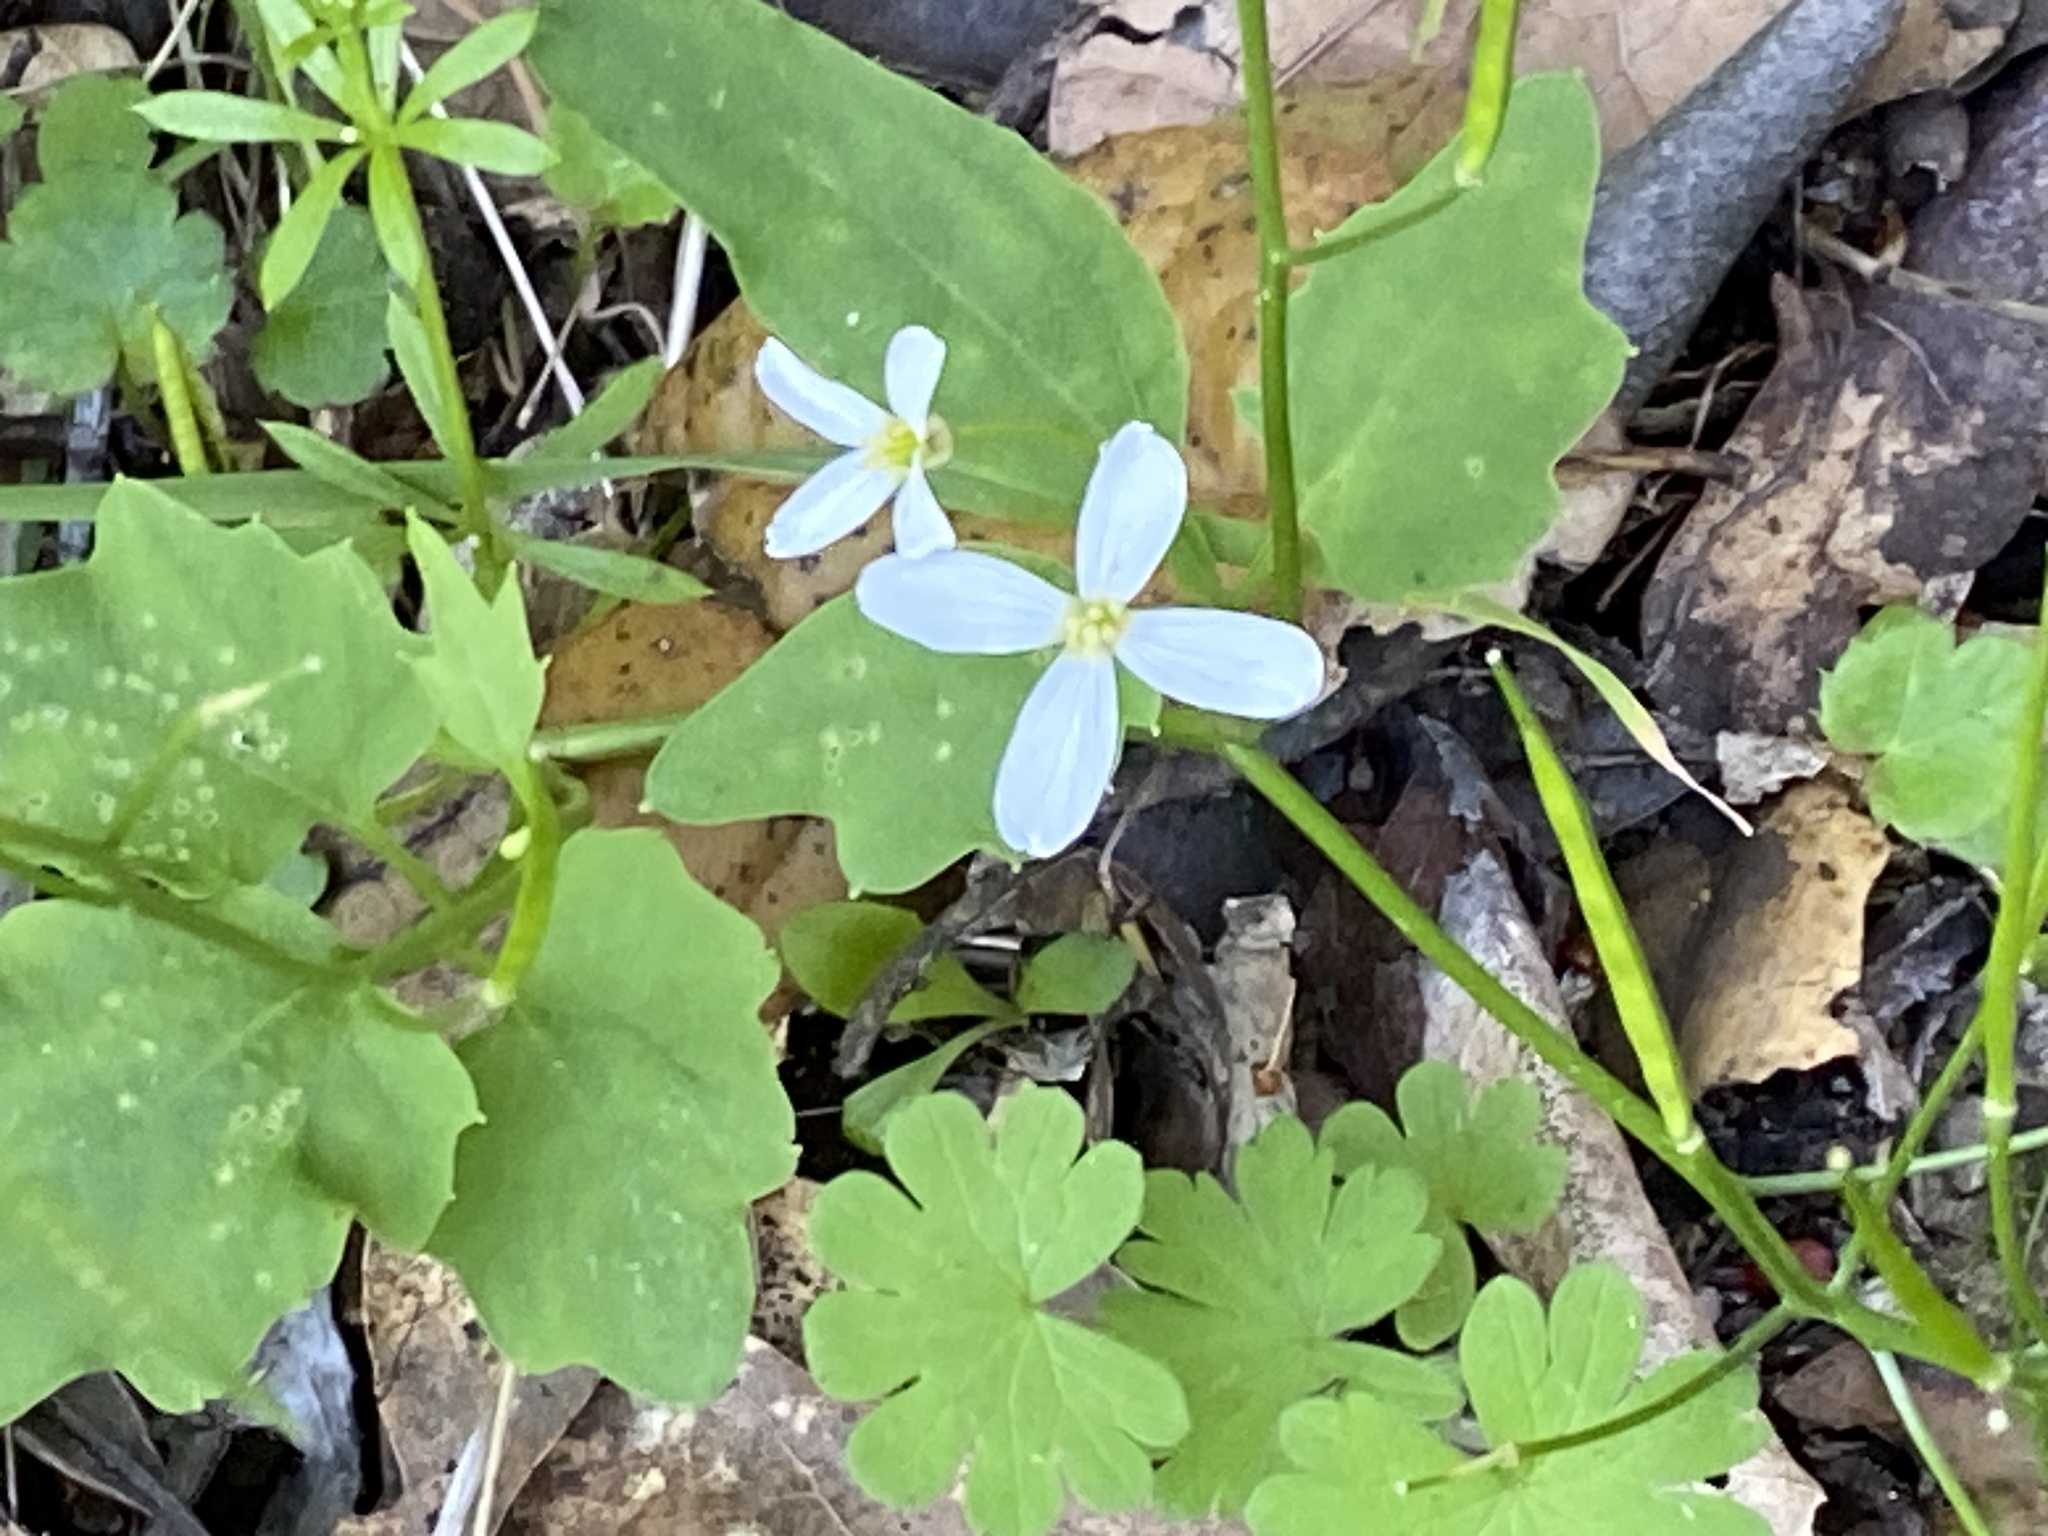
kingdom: Plantae
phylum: Tracheophyta
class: Magnoliopsida
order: Brassicales
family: Brassicaceae
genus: Cardamine
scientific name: Cardamine californica
